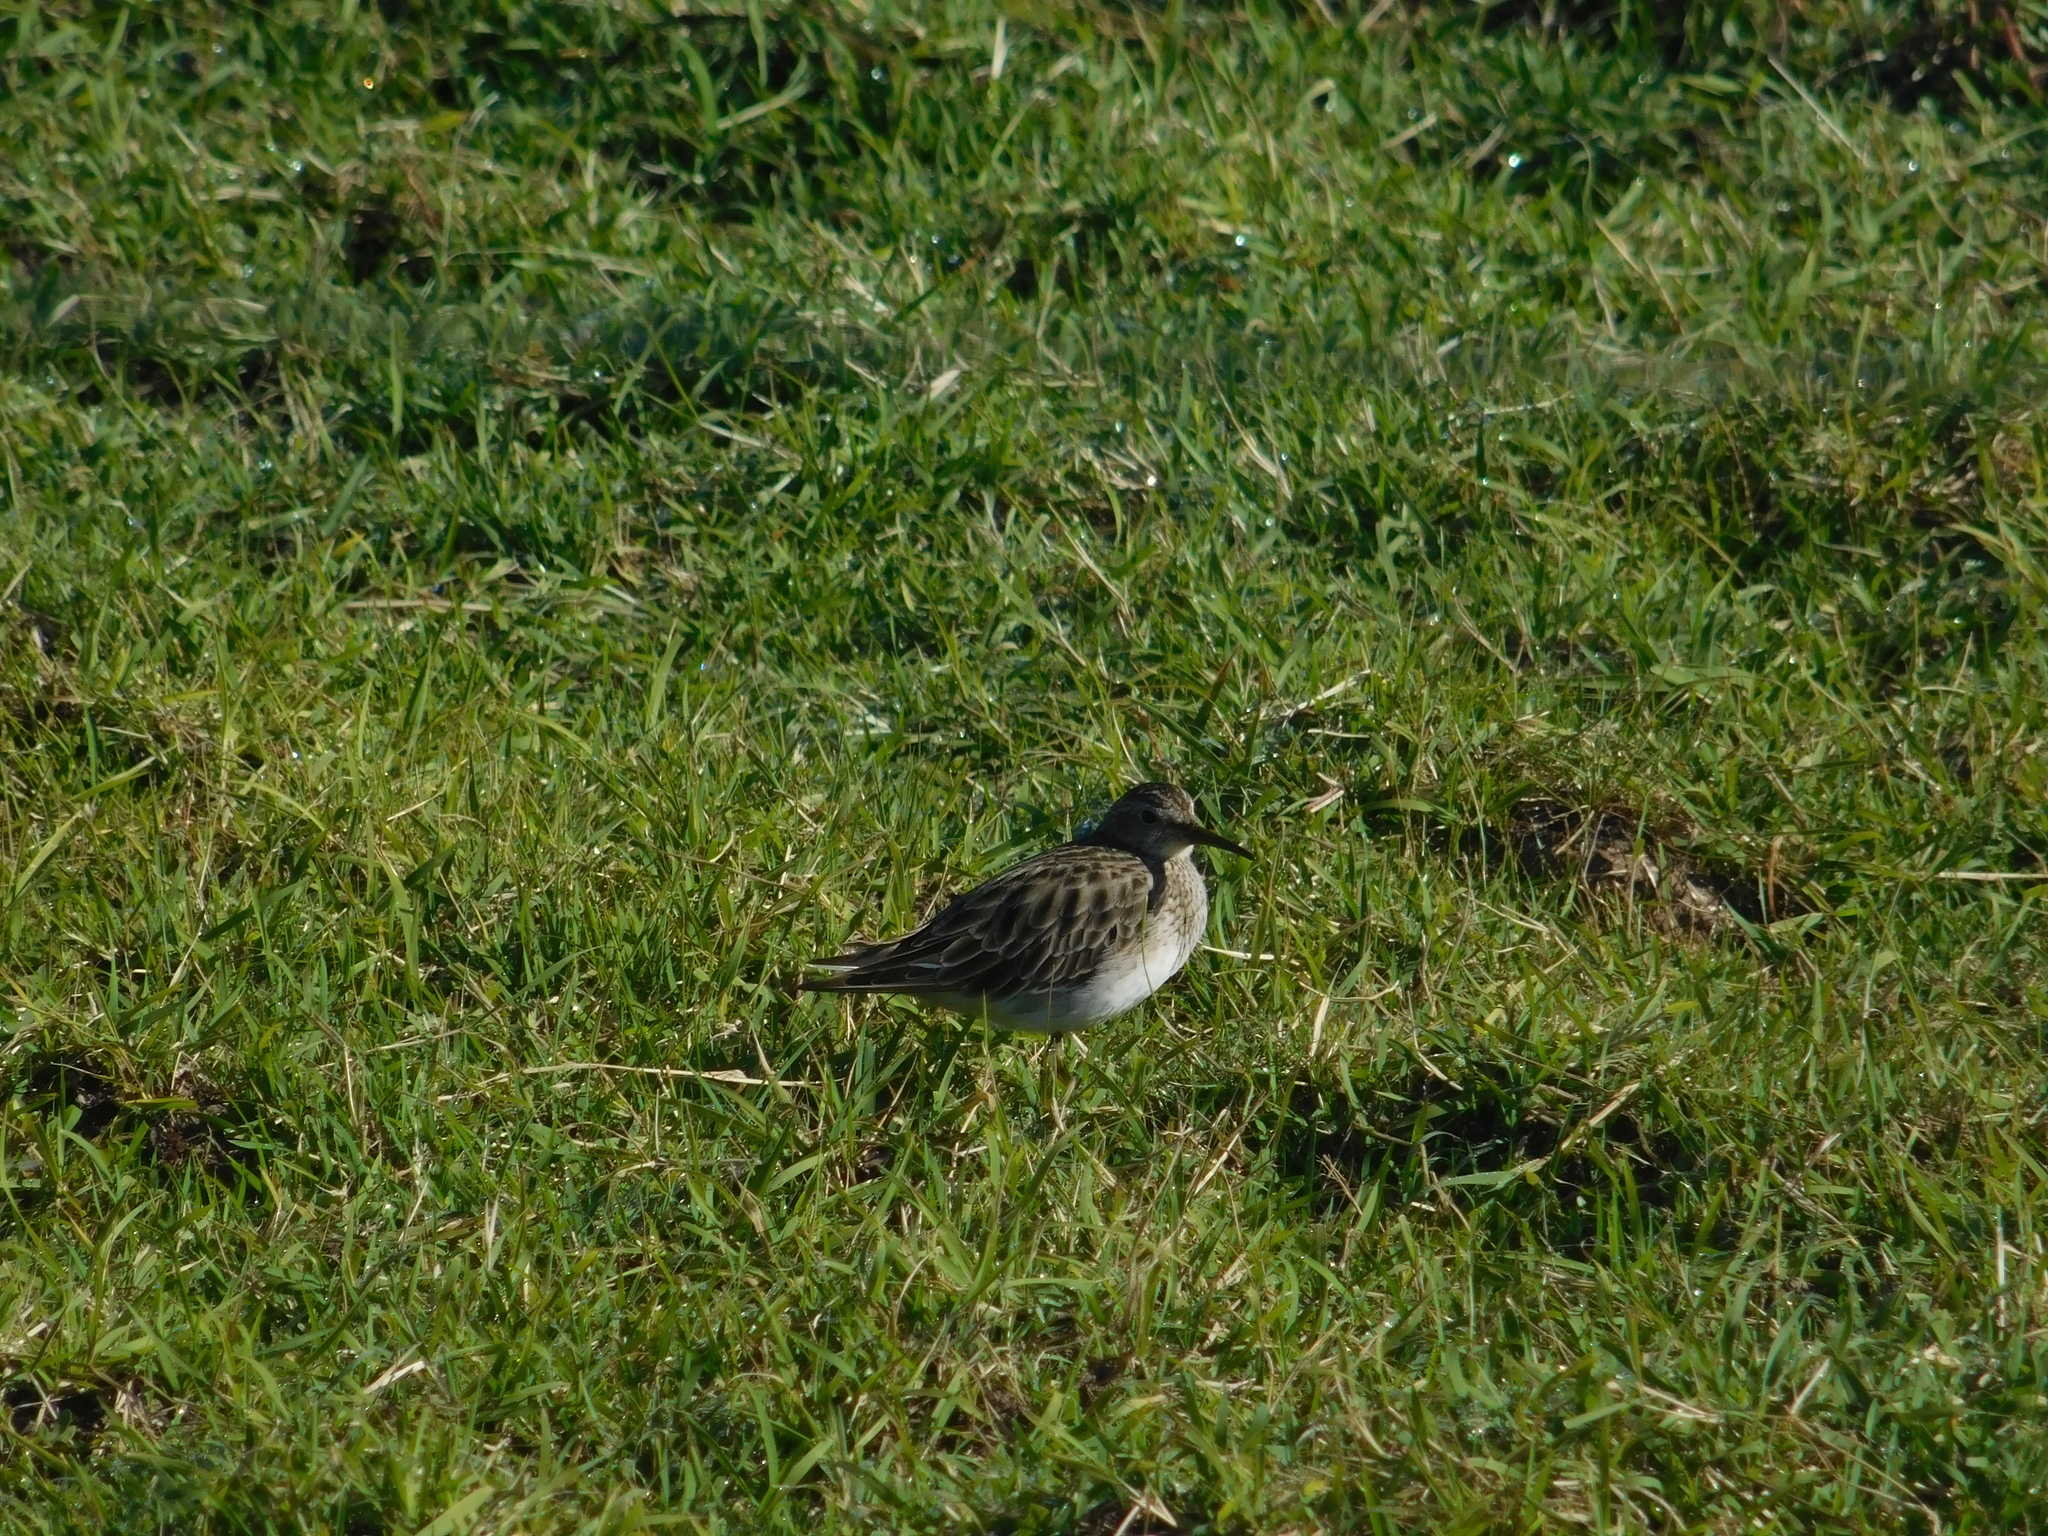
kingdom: Animalia
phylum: Chordata
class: Aves
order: Charadriiformes
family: Scolopacidae
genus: Calidris
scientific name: Calidris melanotos
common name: Pectoral sandpiper
